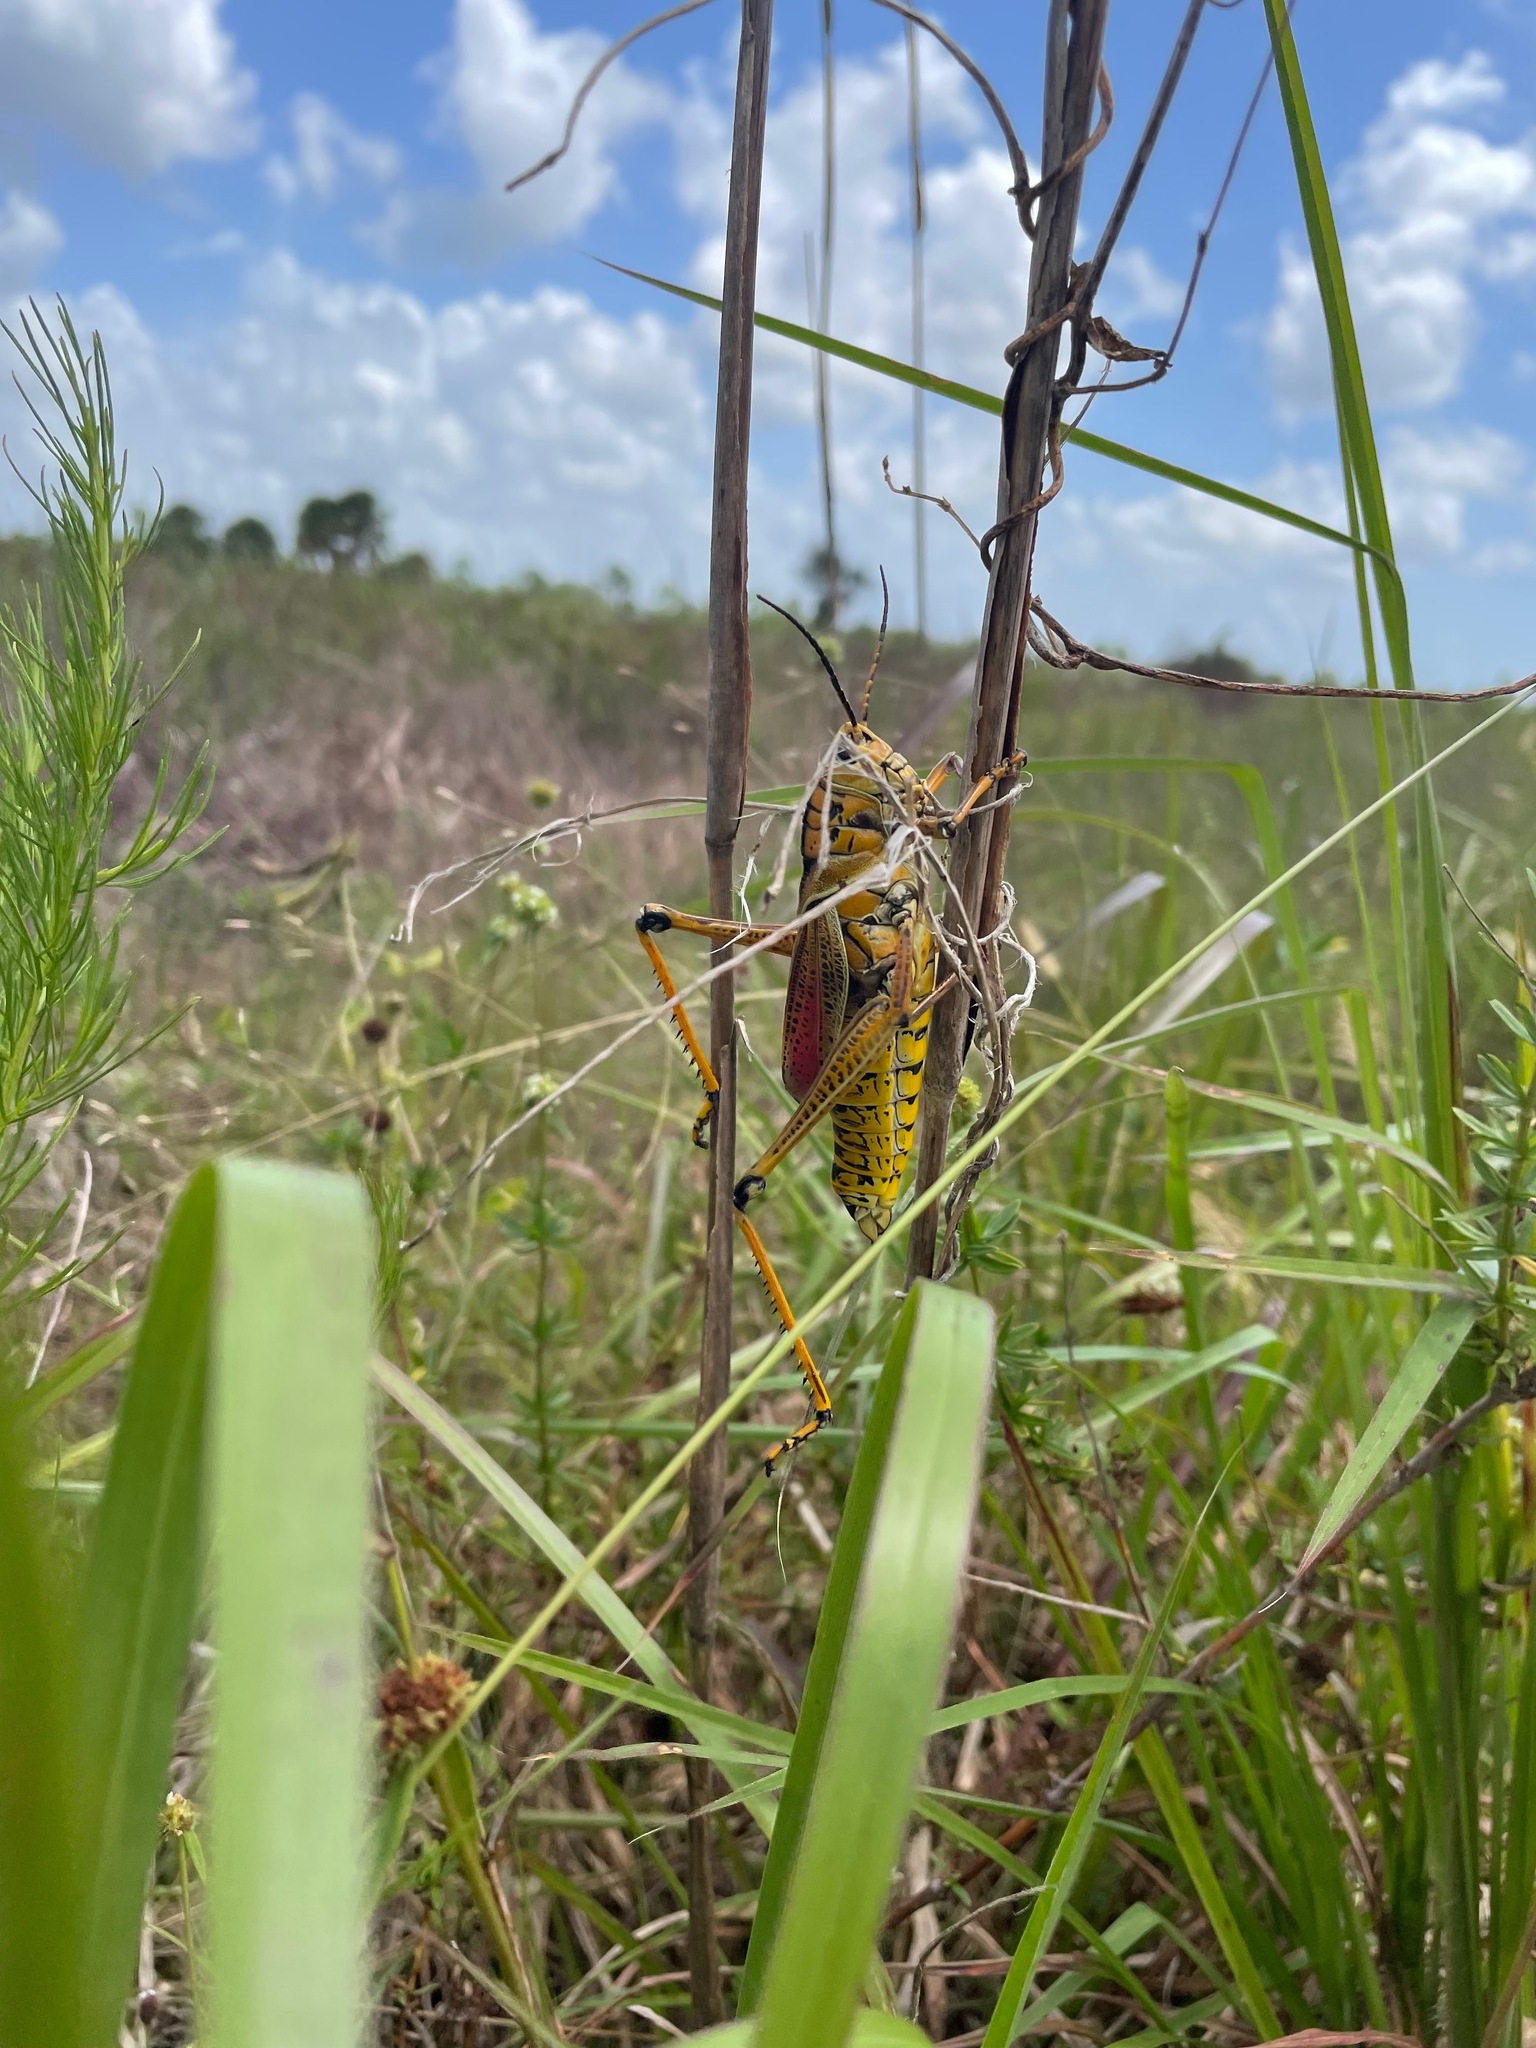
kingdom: Animalia
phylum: Arthropoda
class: Insecta
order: Orthoptera
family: Romaleidae
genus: Romalea
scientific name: Romalea microptera
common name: Eastern lubber grasshopper
